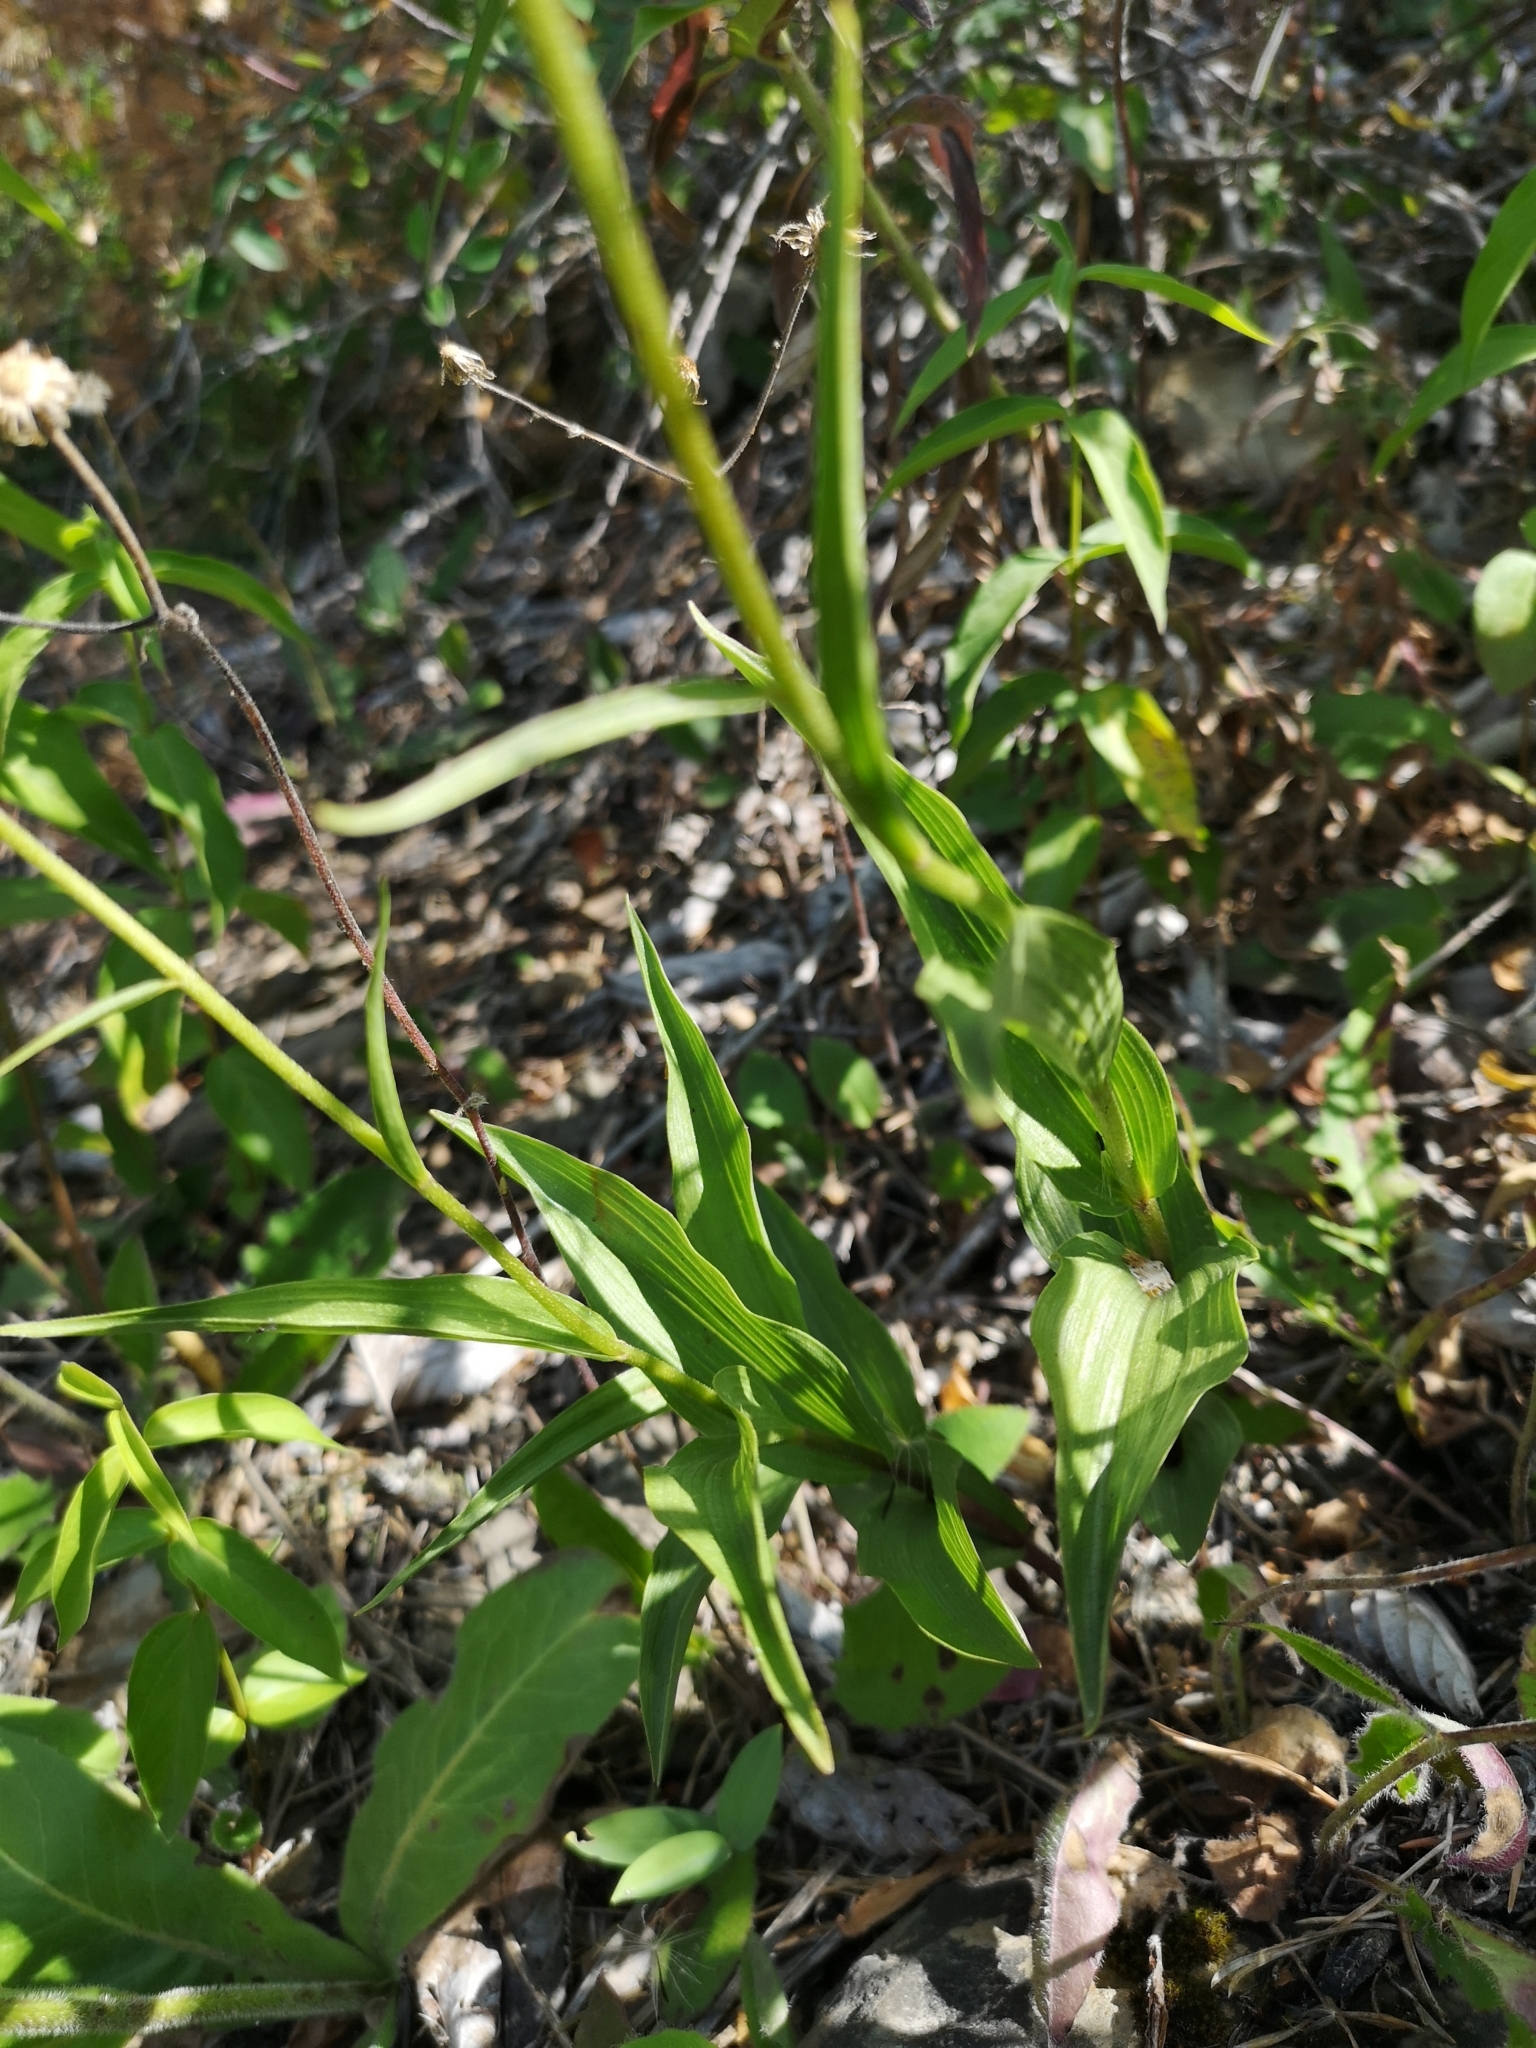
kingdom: Plantae
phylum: Tracheophyta
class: Liliopsida
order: Asparagales
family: Orchidaceae
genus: Epipactis
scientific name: Epipactis atrorubens
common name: Dark-red helleborine
